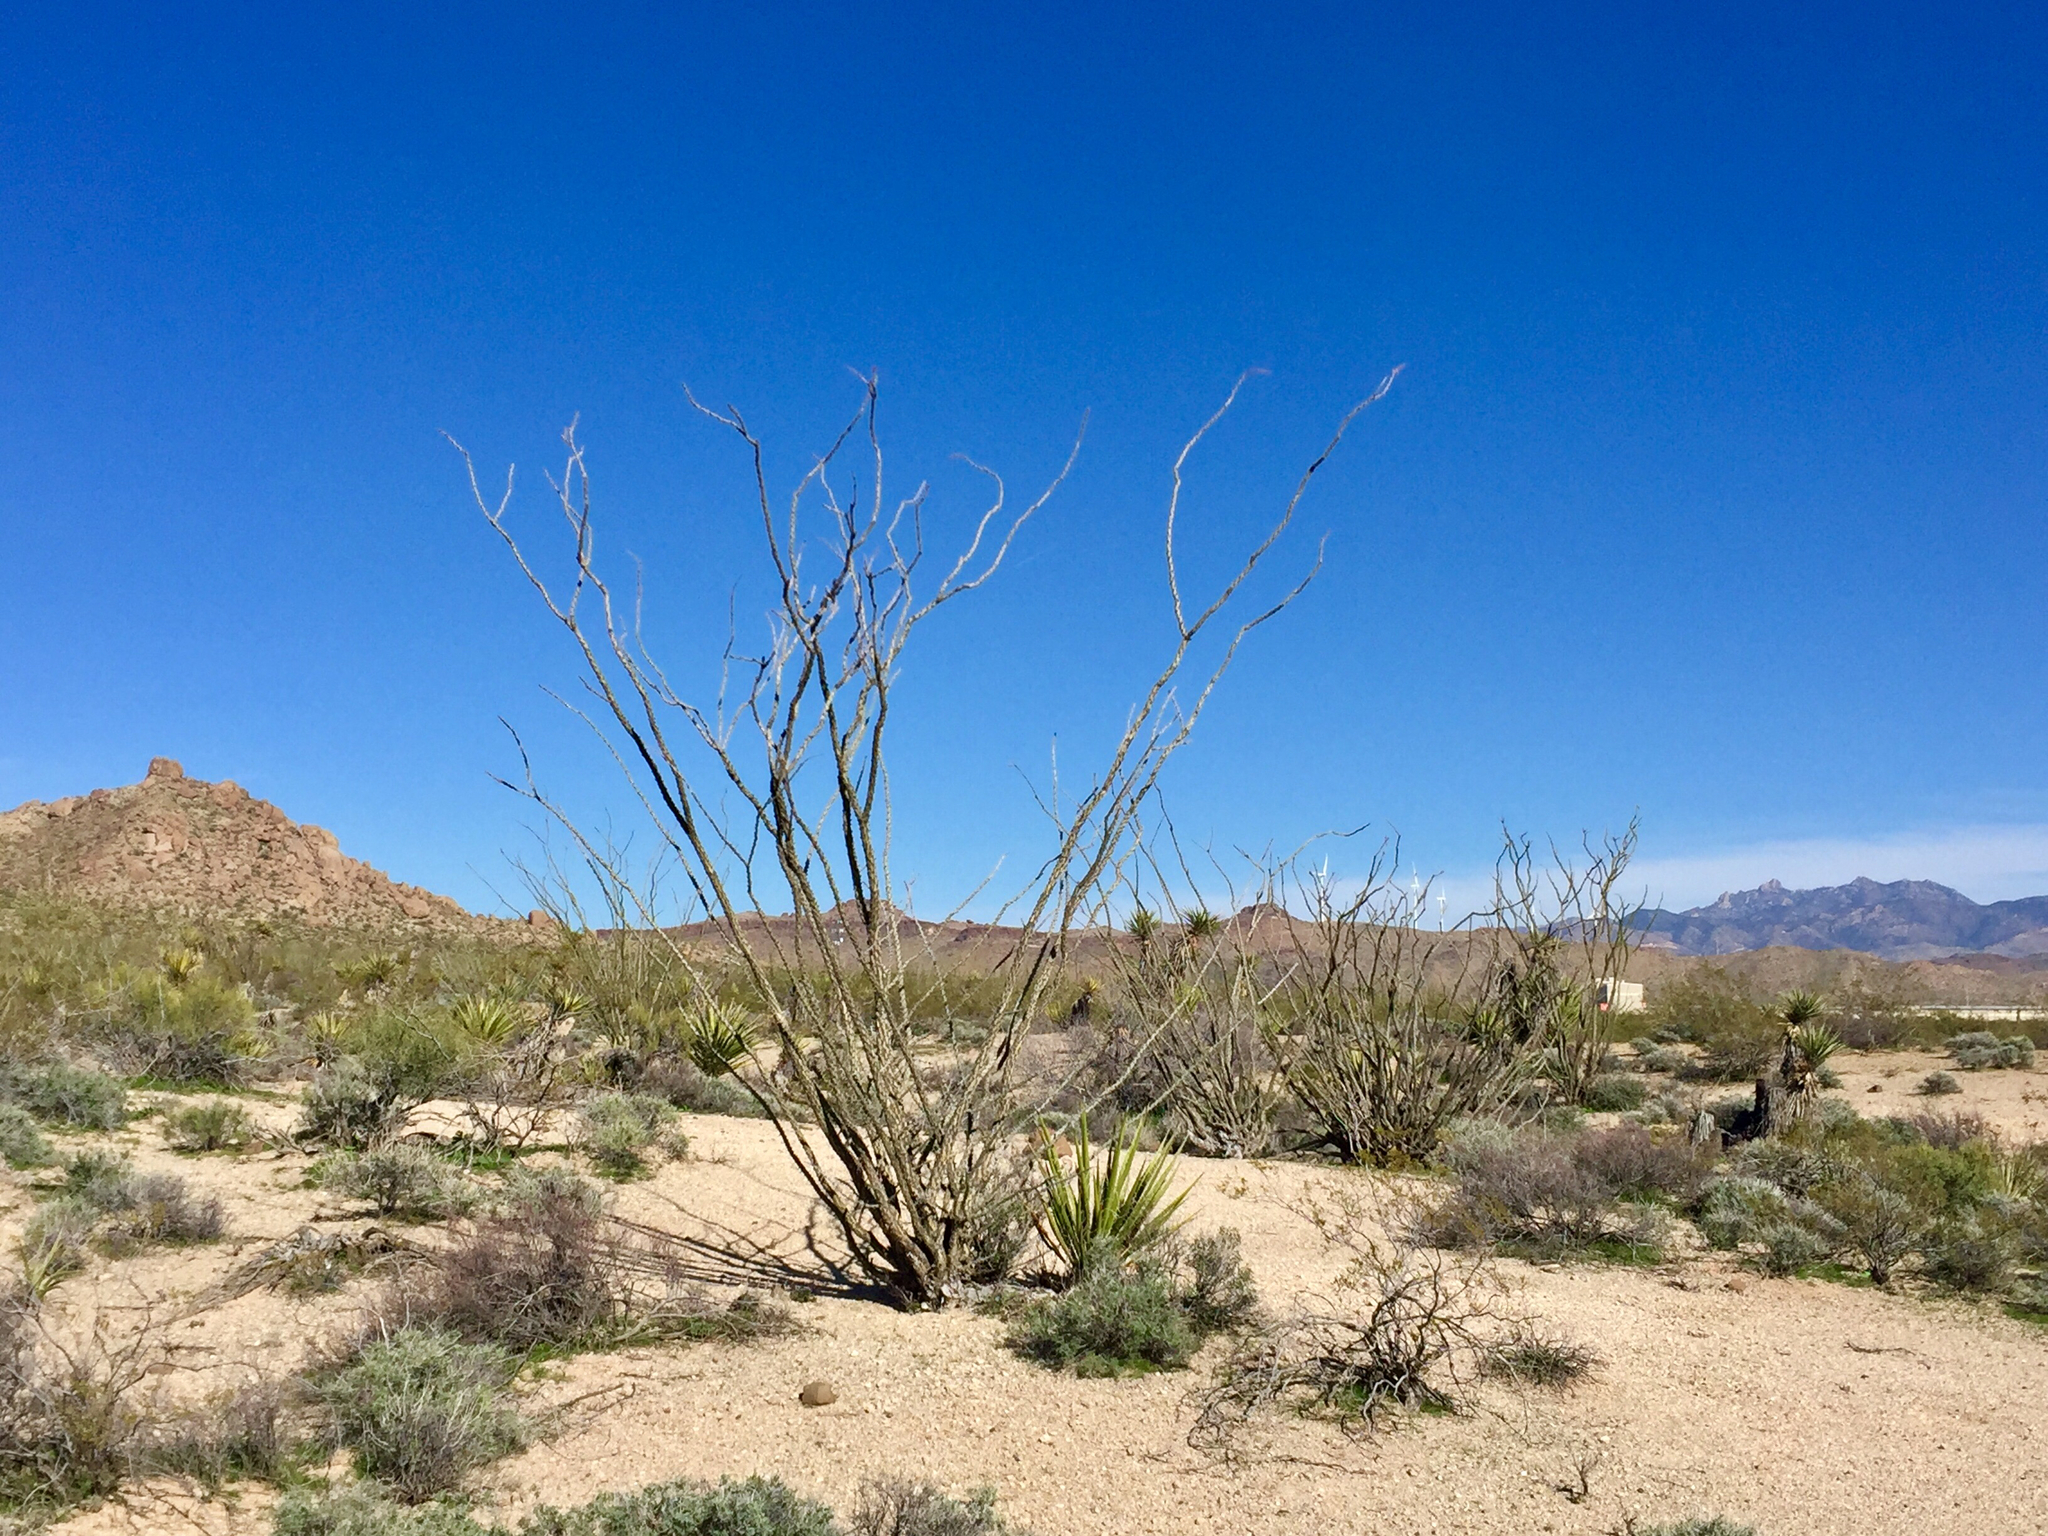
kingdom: Plantae
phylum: Tracheophyta
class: Magnoliopsida
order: Ericales
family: Fouquieriaceae
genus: Fouquieria
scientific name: Fouquieria splendens
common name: Vine-cactus
